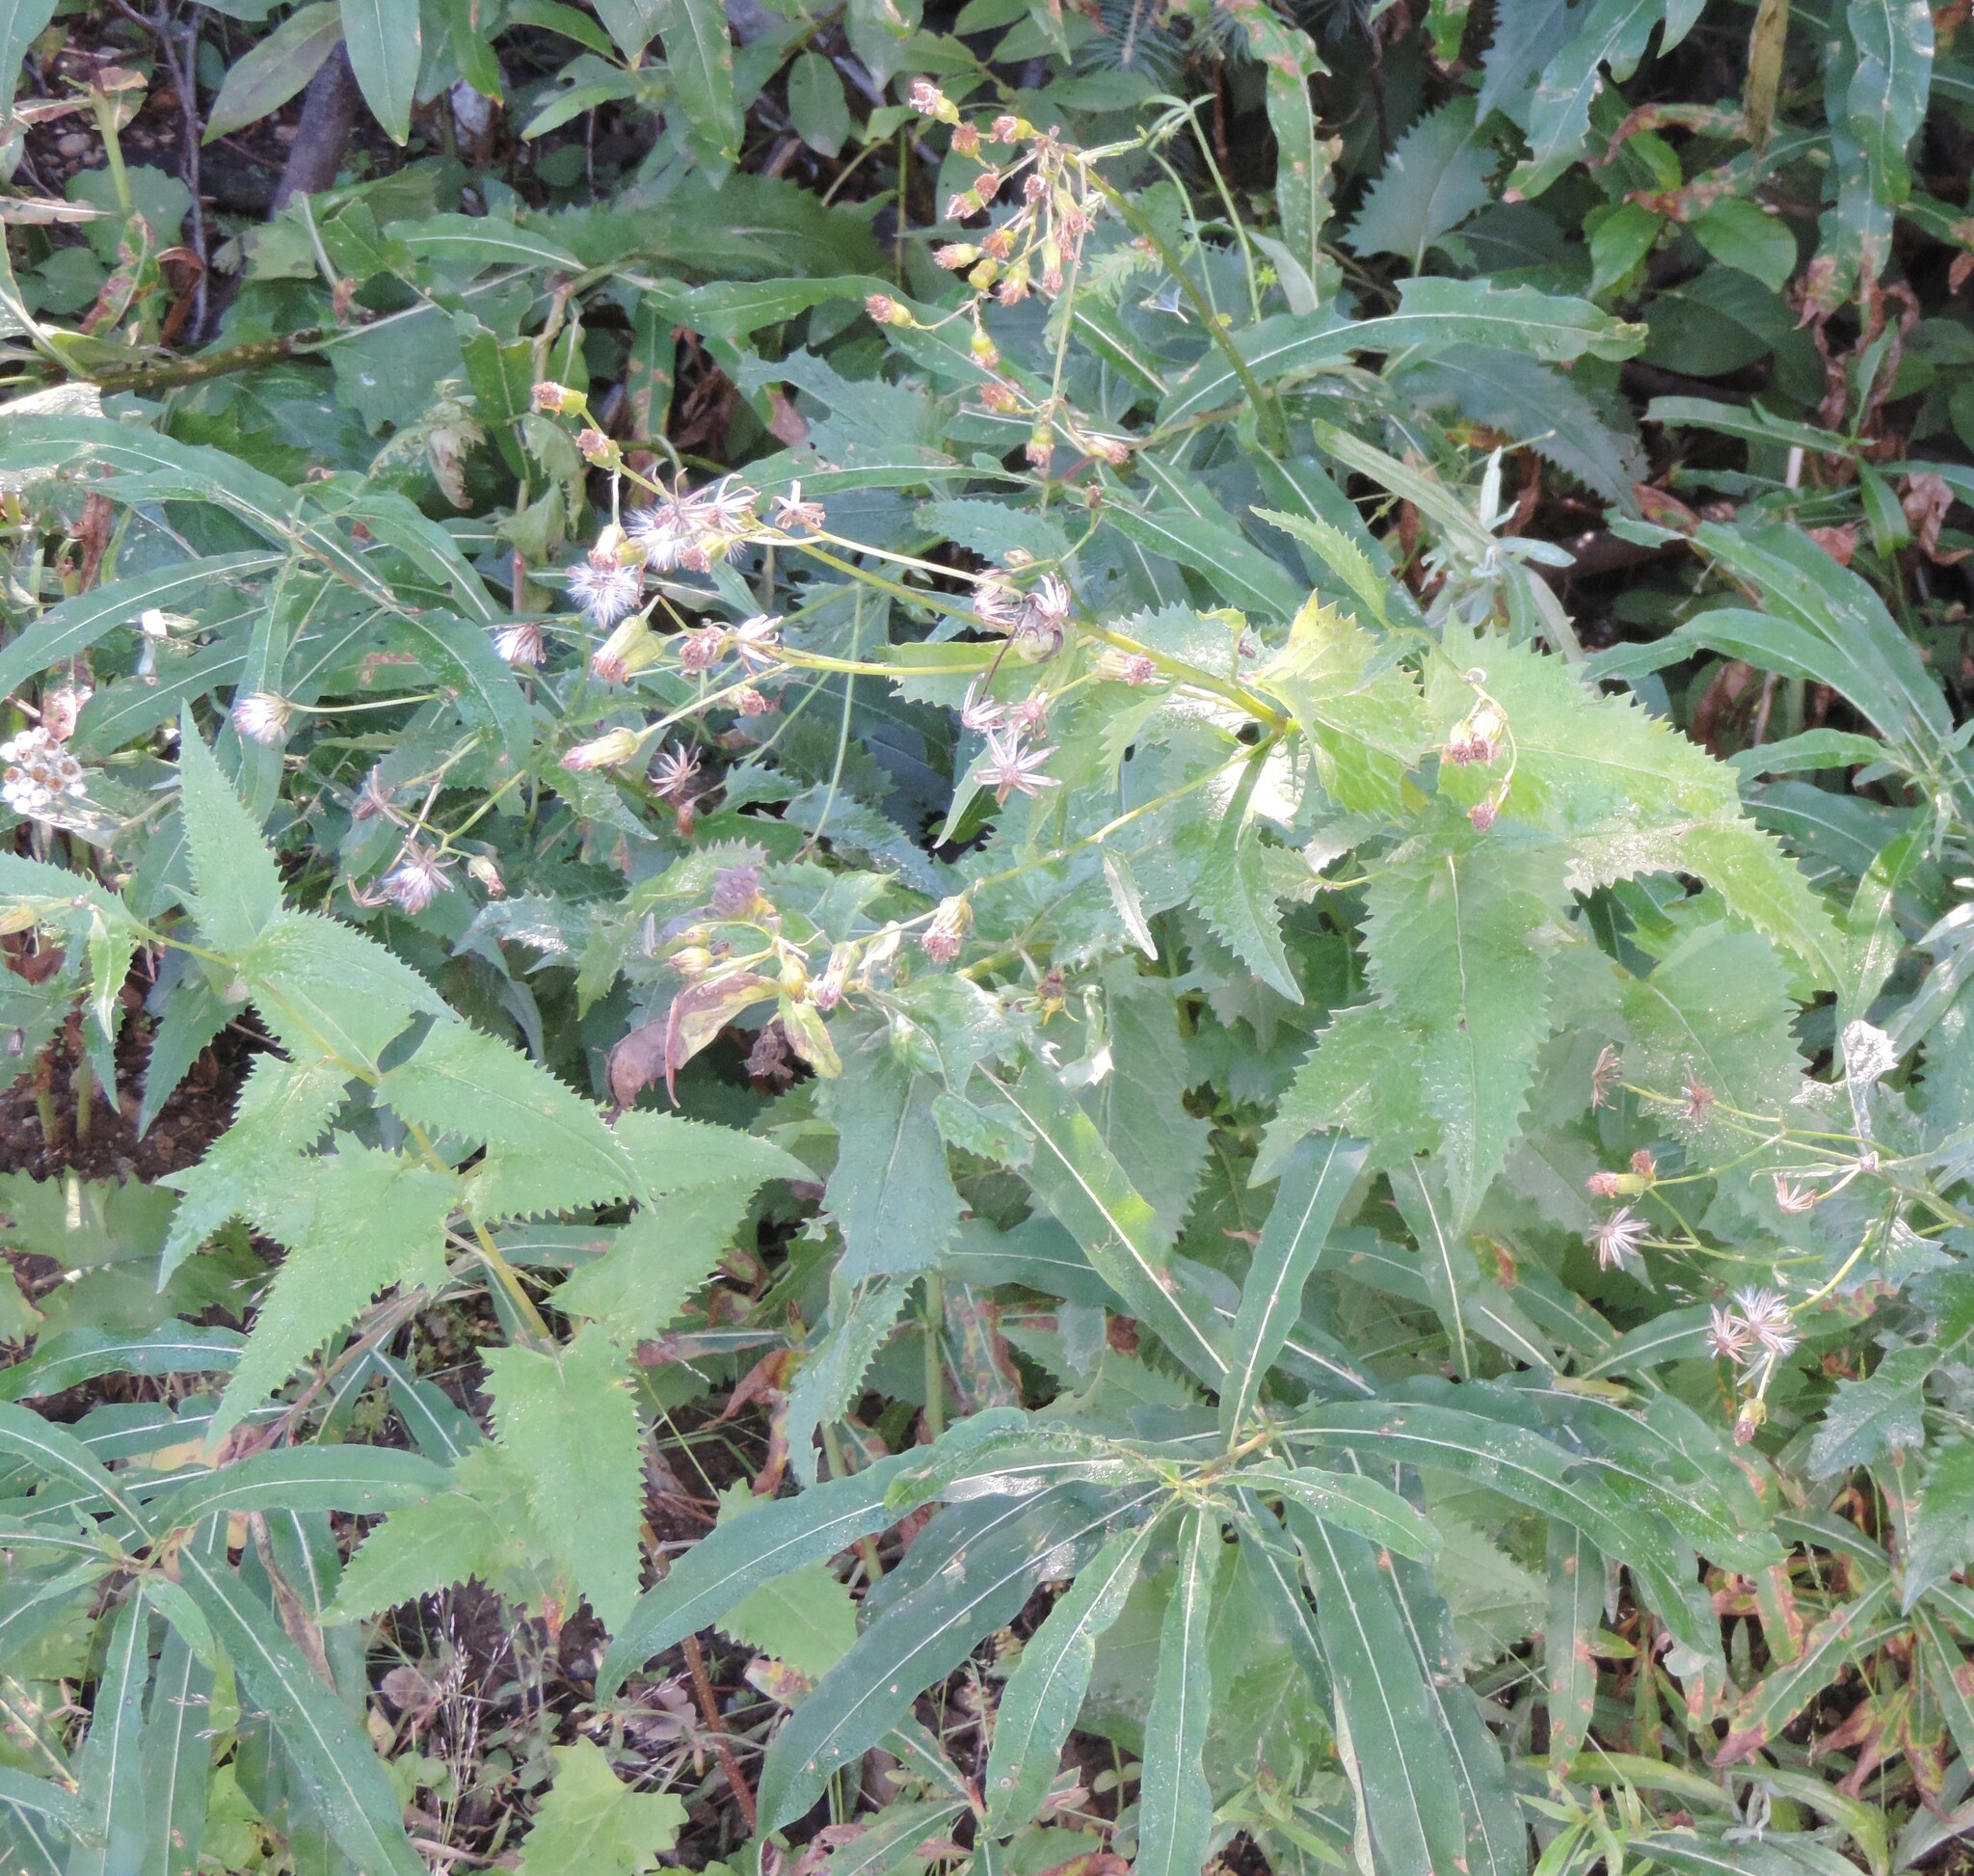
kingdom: Plantae
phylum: Tracheophyta
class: Magnoliopsida
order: Asterales
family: Asteraceae
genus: Senecio
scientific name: Senecio triangularis
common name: Arrowleaf butterweed
